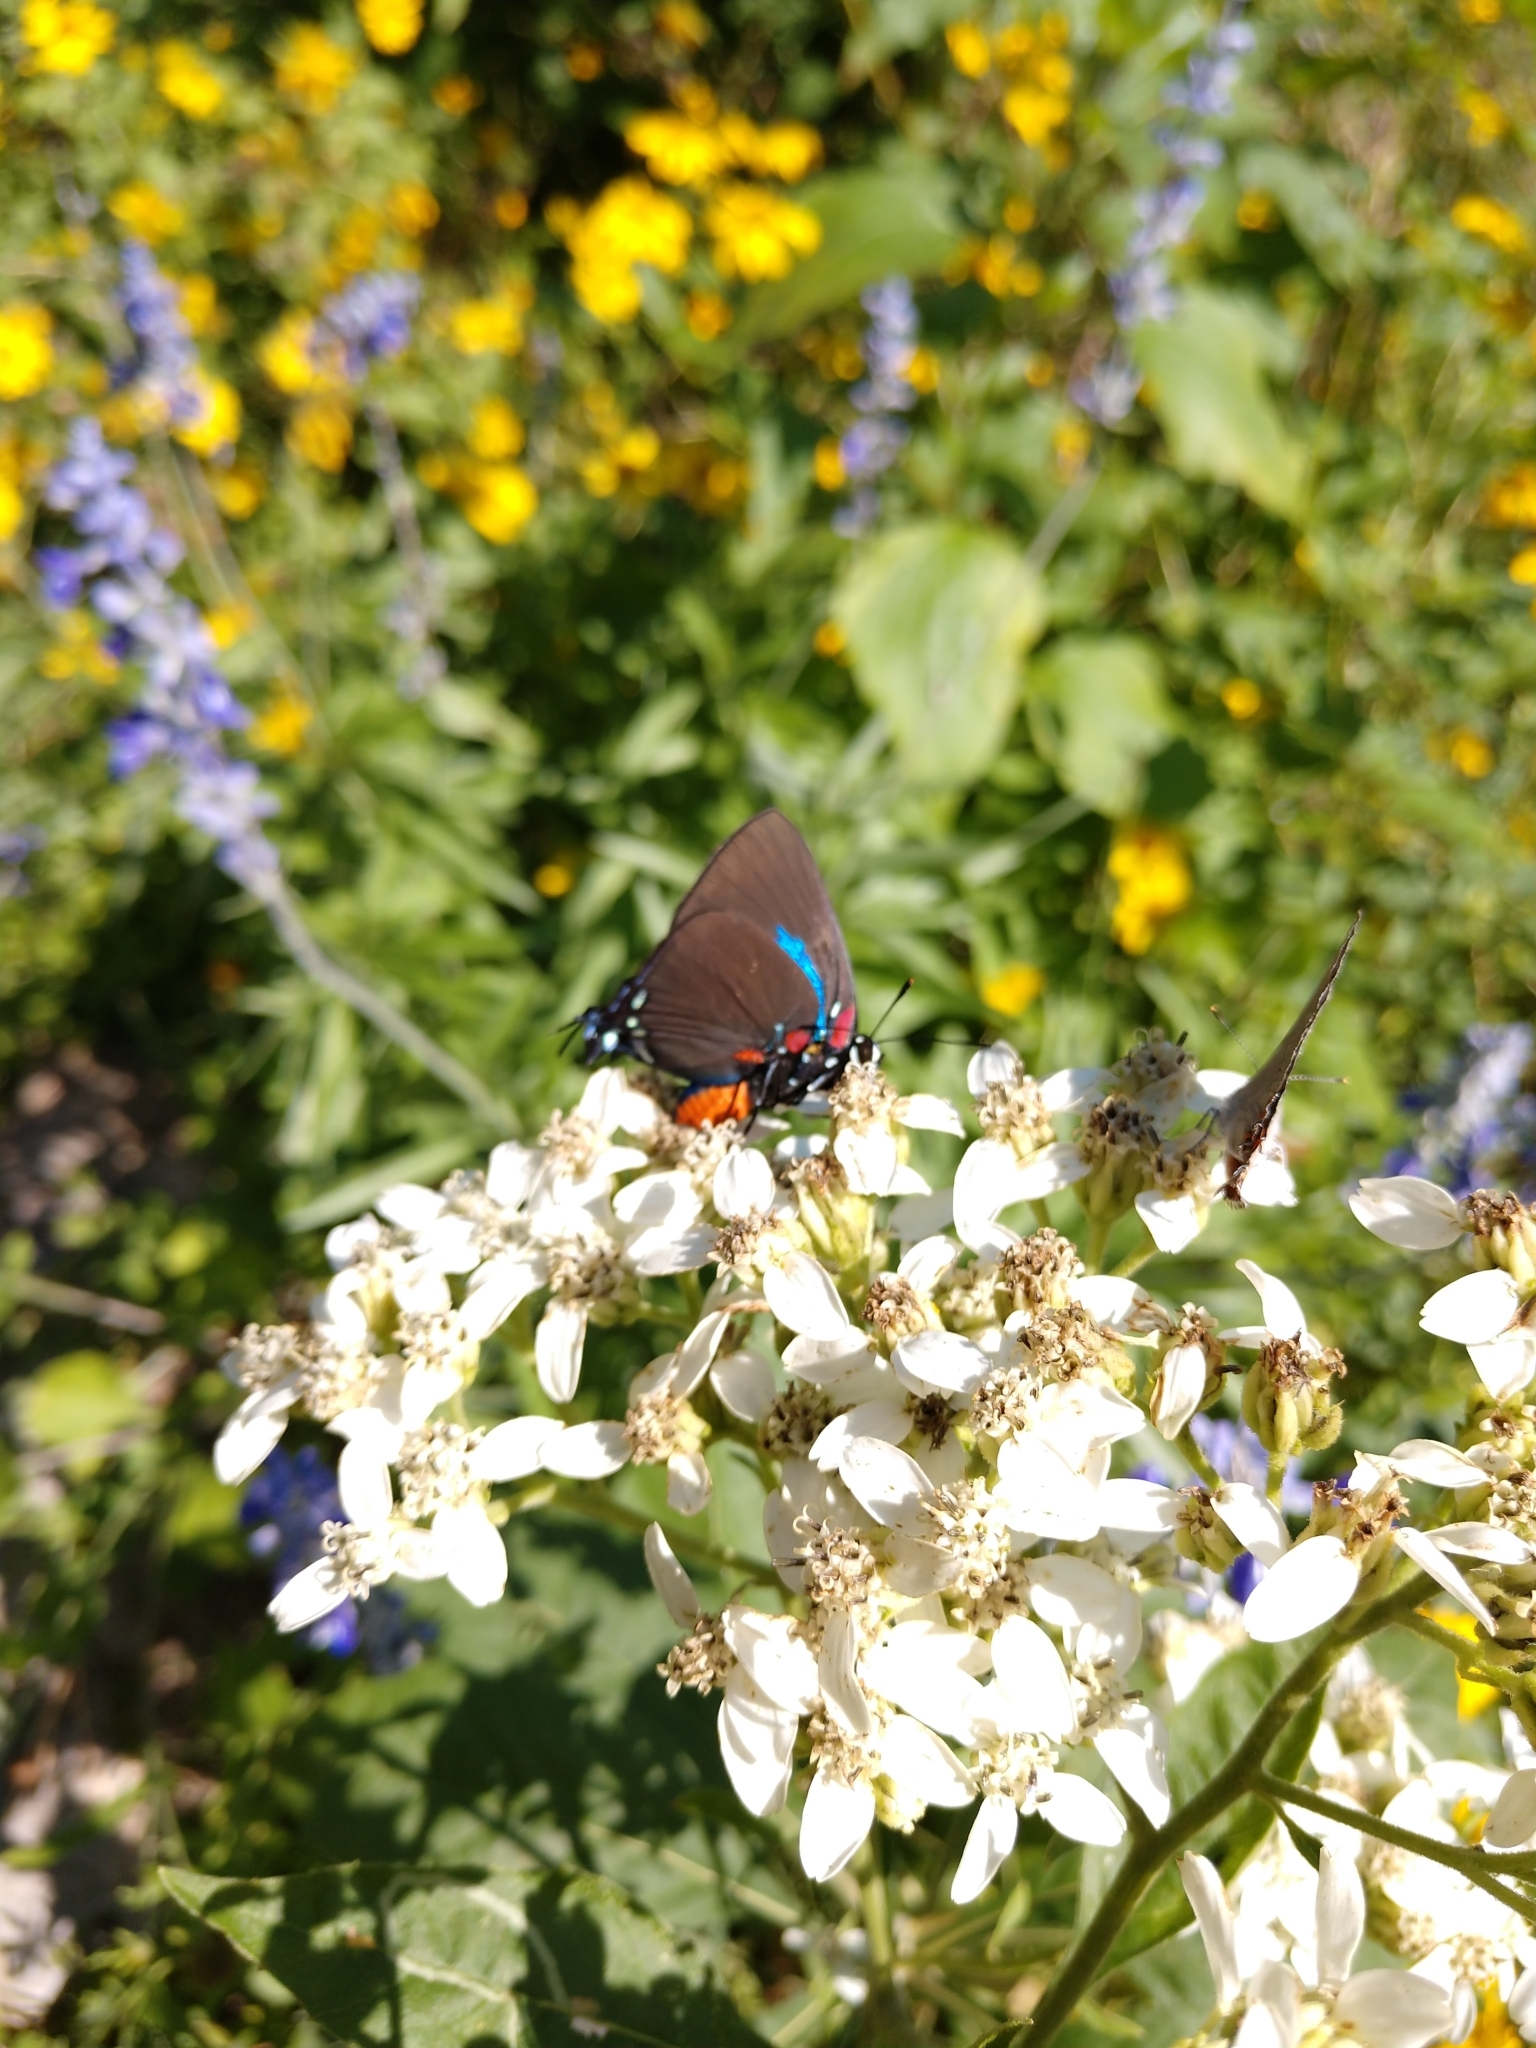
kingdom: Animalia
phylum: Arthropoda
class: Insecta
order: Lepidoptera
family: Lycaenidae
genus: Atlides
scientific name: Atlides halesus
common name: Great purple hairstreak
